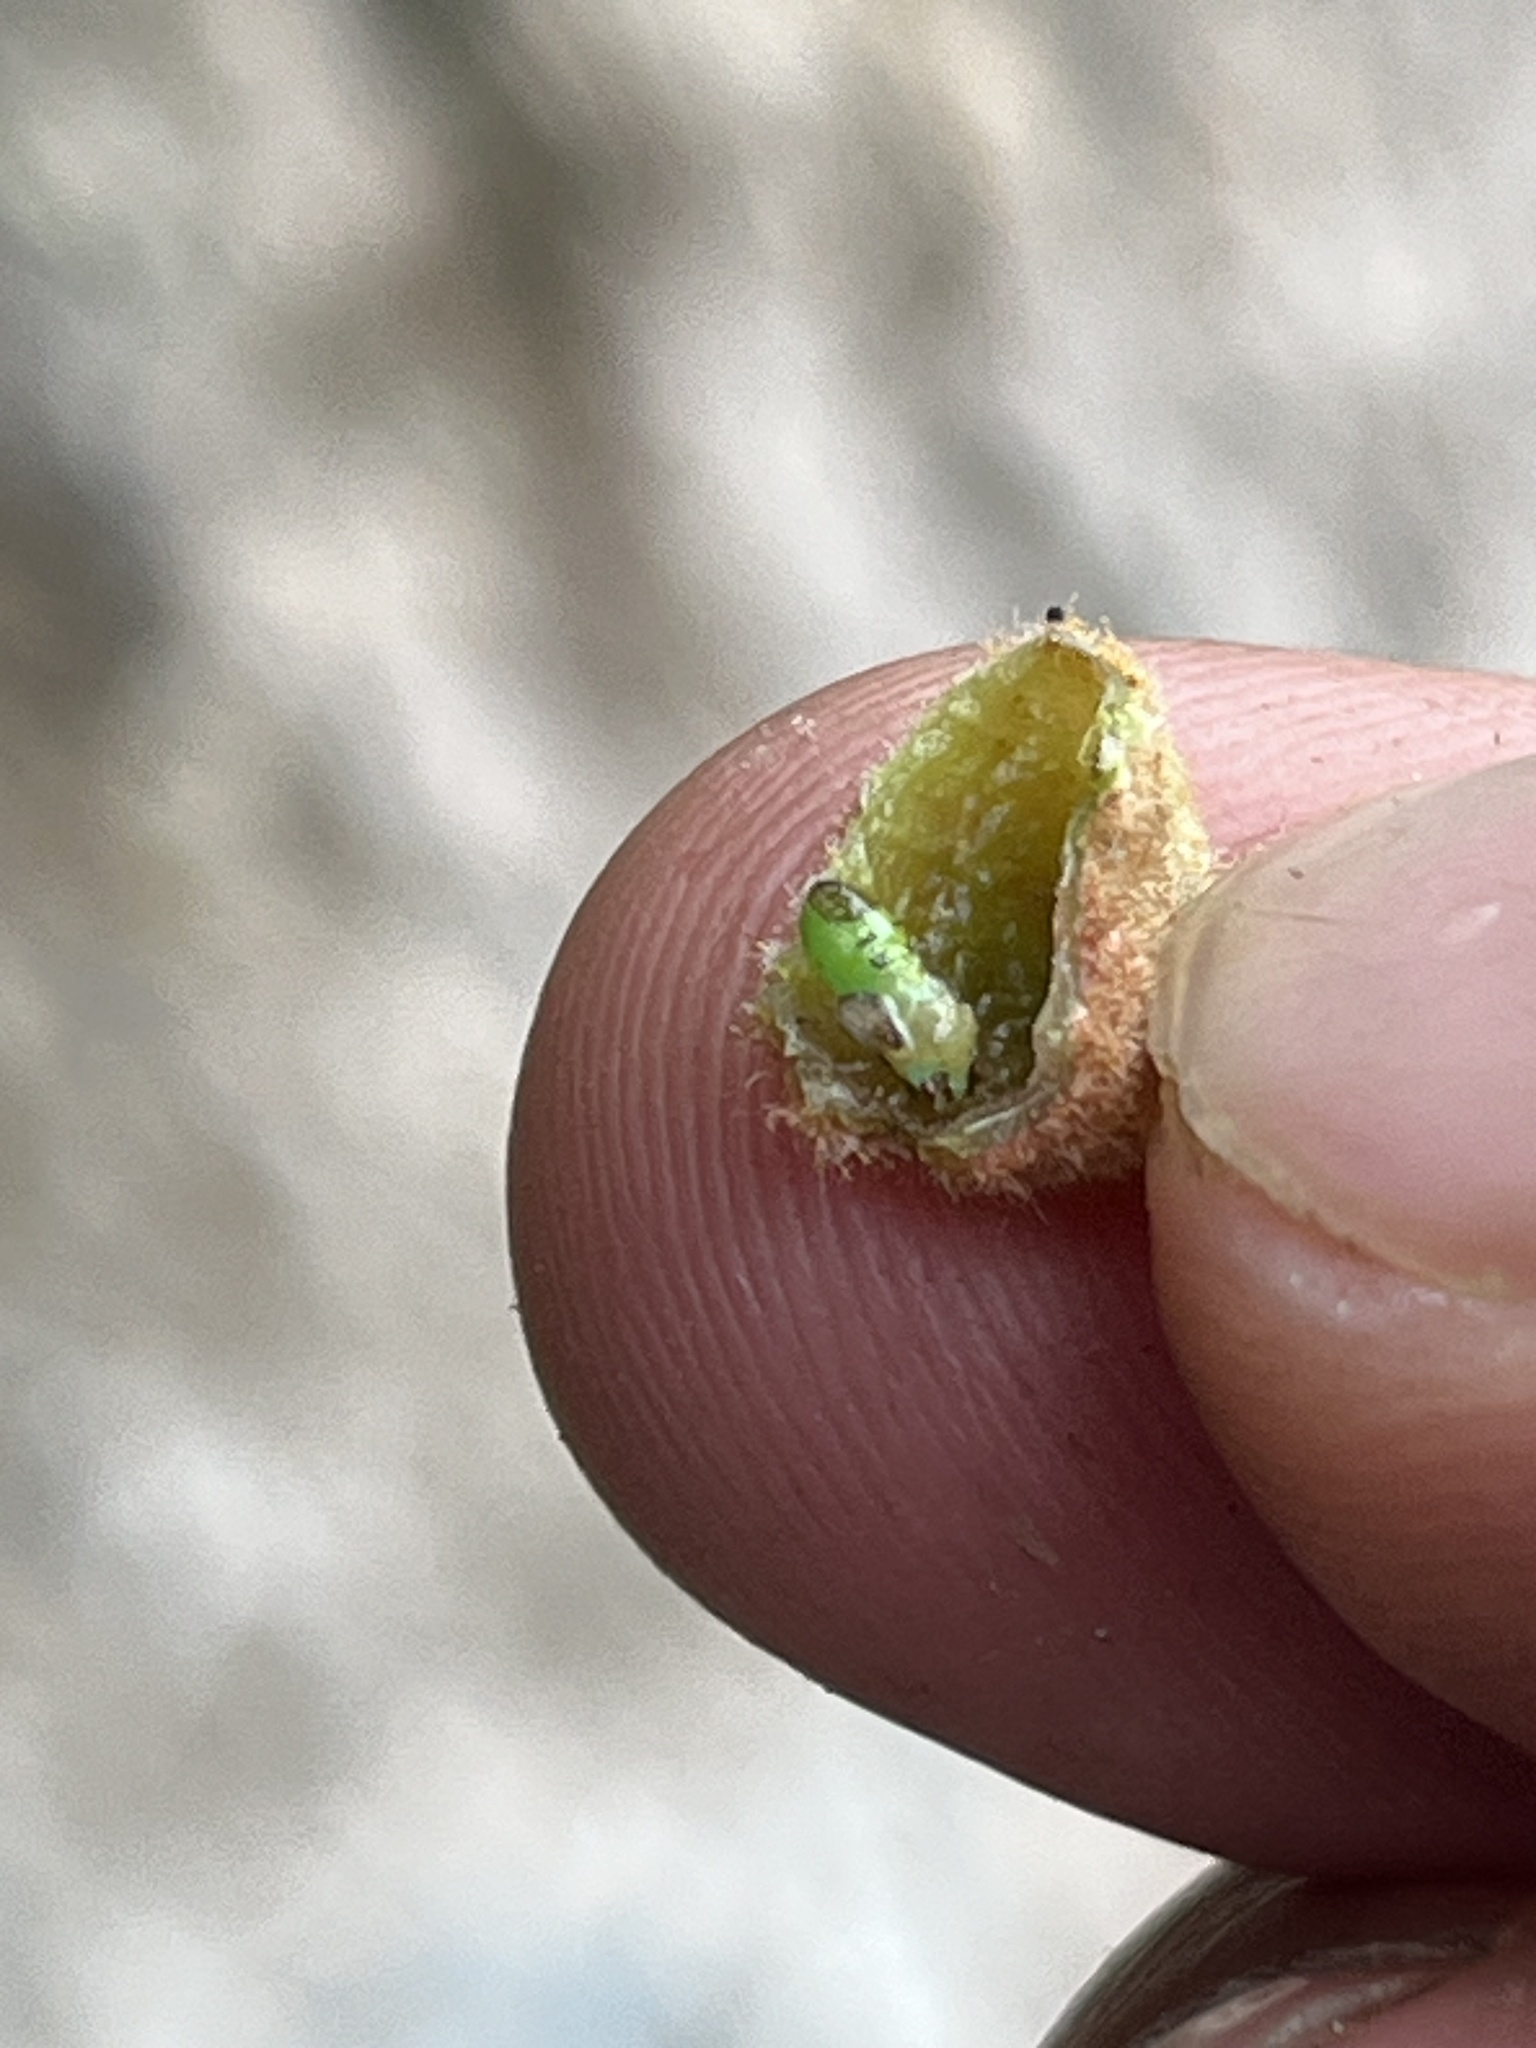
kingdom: Plantae
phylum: Tracheophyta
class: Magnoliopsida
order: Oxalidales
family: Cunoniaceae
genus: Weinmannia
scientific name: Weinmannia tomentosa
